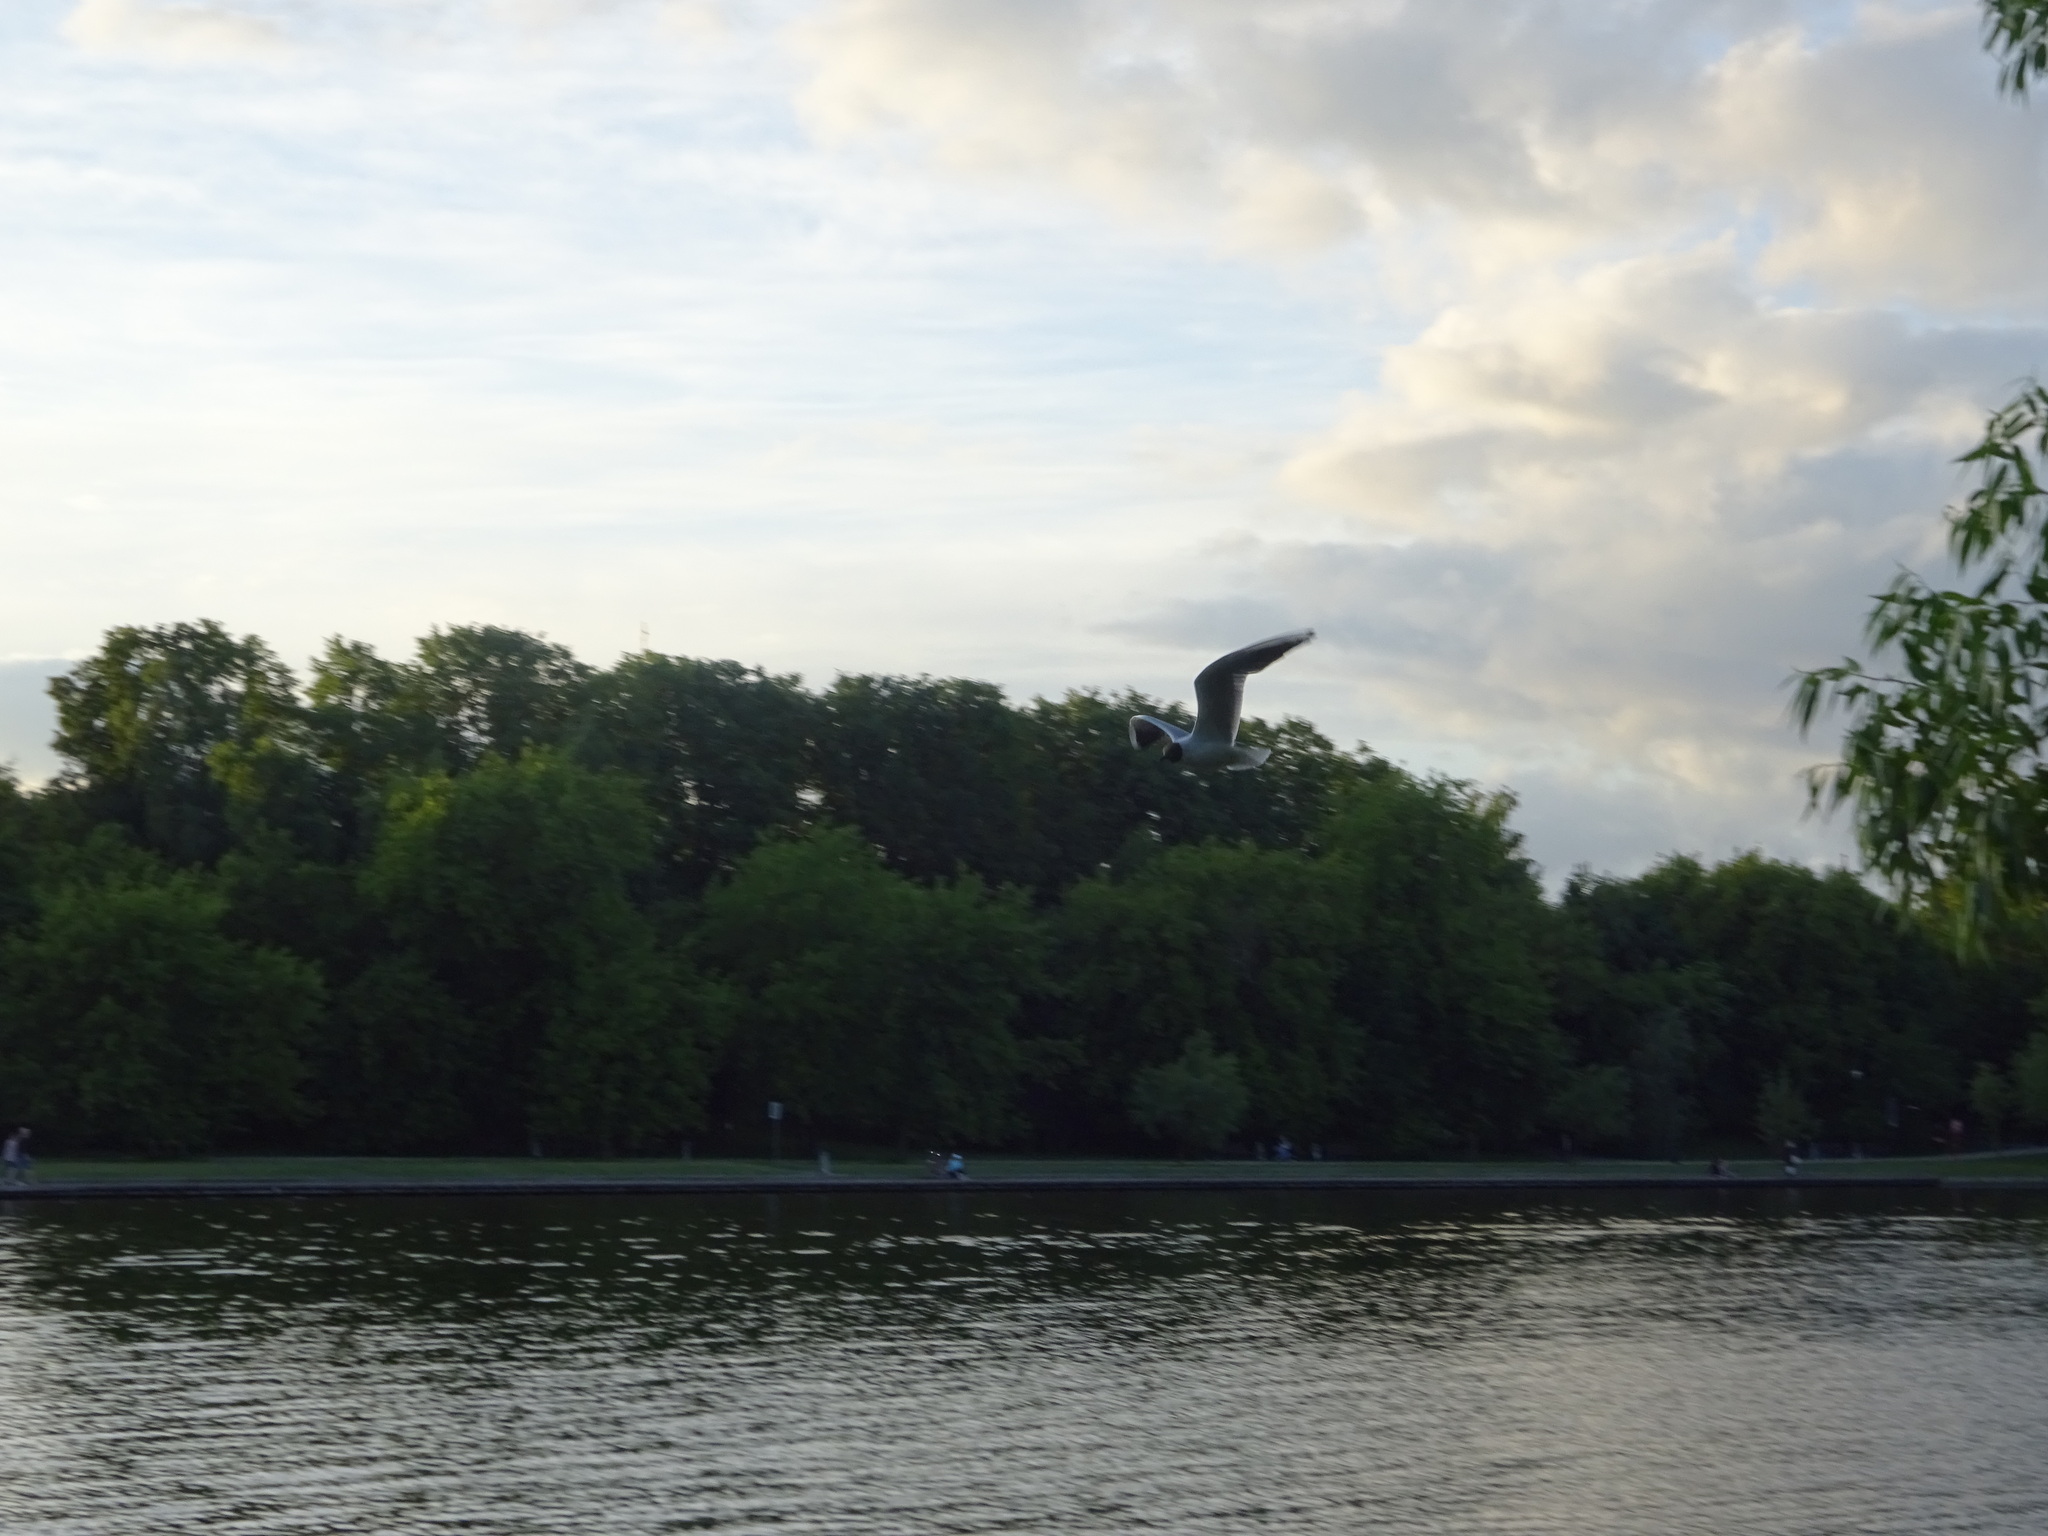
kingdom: Animalia
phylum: Chordata
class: Aves
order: Charadriiformes
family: Laridae
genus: Chroicocephalus
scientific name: Chroicocephalus ridibundus
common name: Black-headed gull
